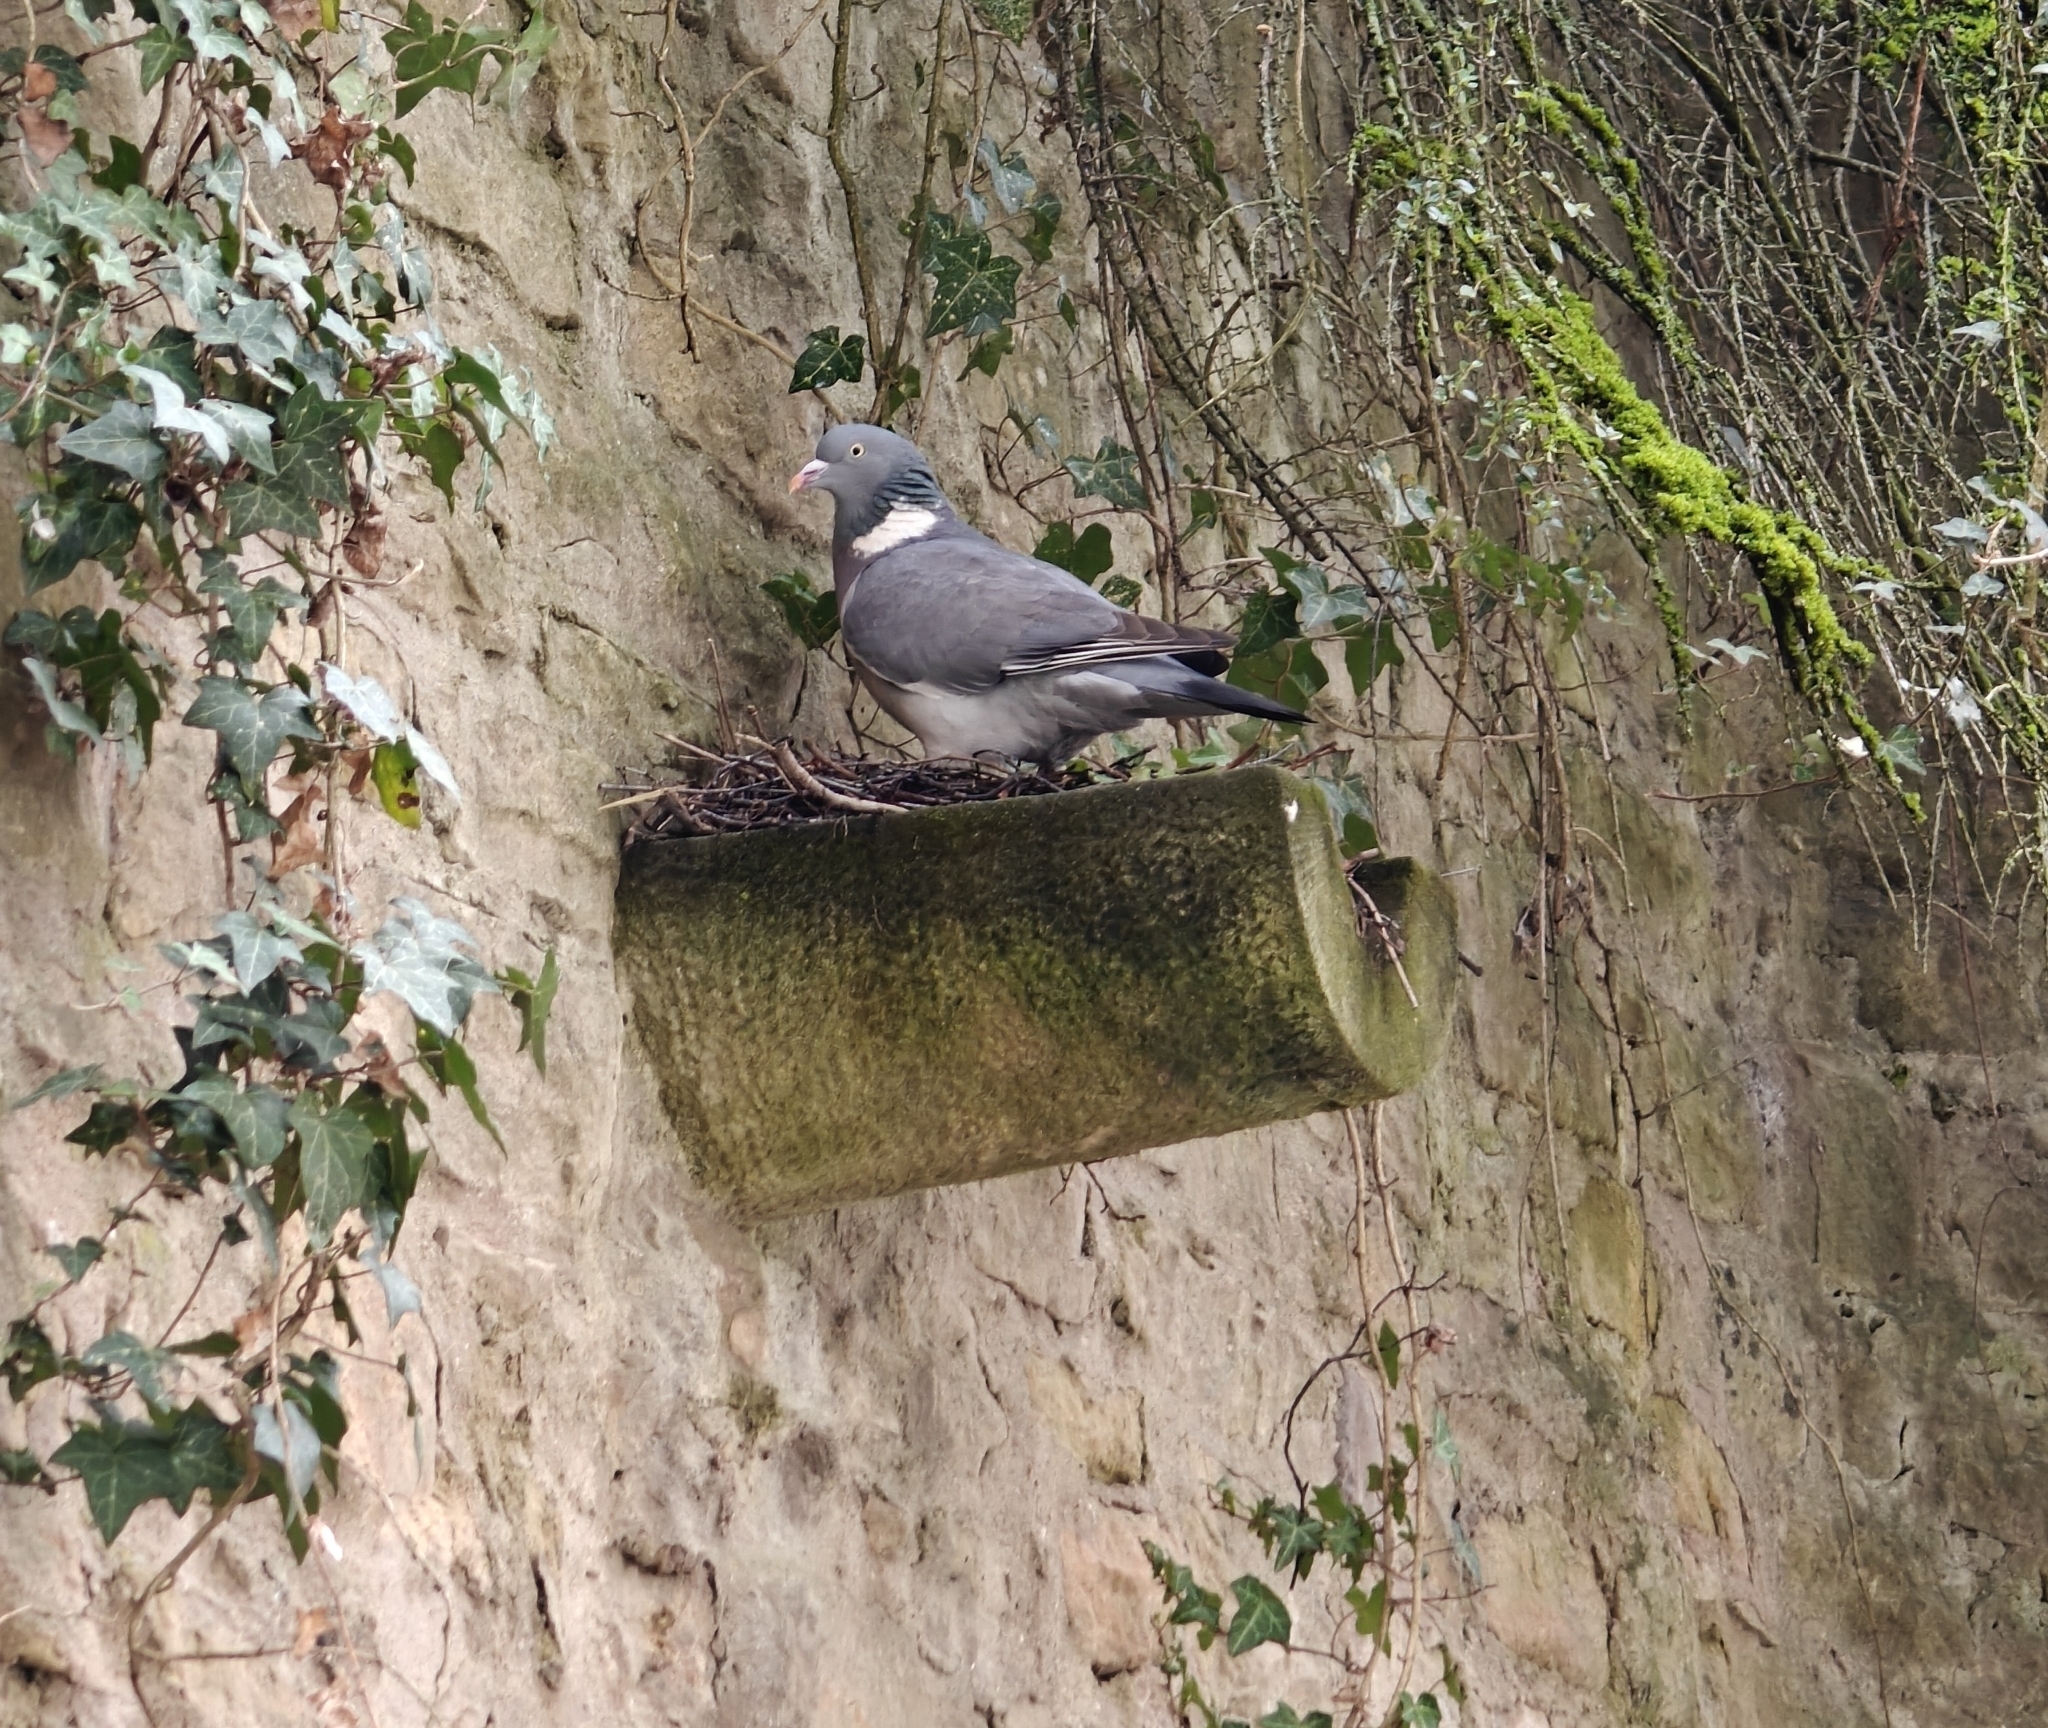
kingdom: Animalia
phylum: Chordata
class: Aves
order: Columbiformes
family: Columbidae
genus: Columba
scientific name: Columba palumbus
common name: Common wood pigeon
